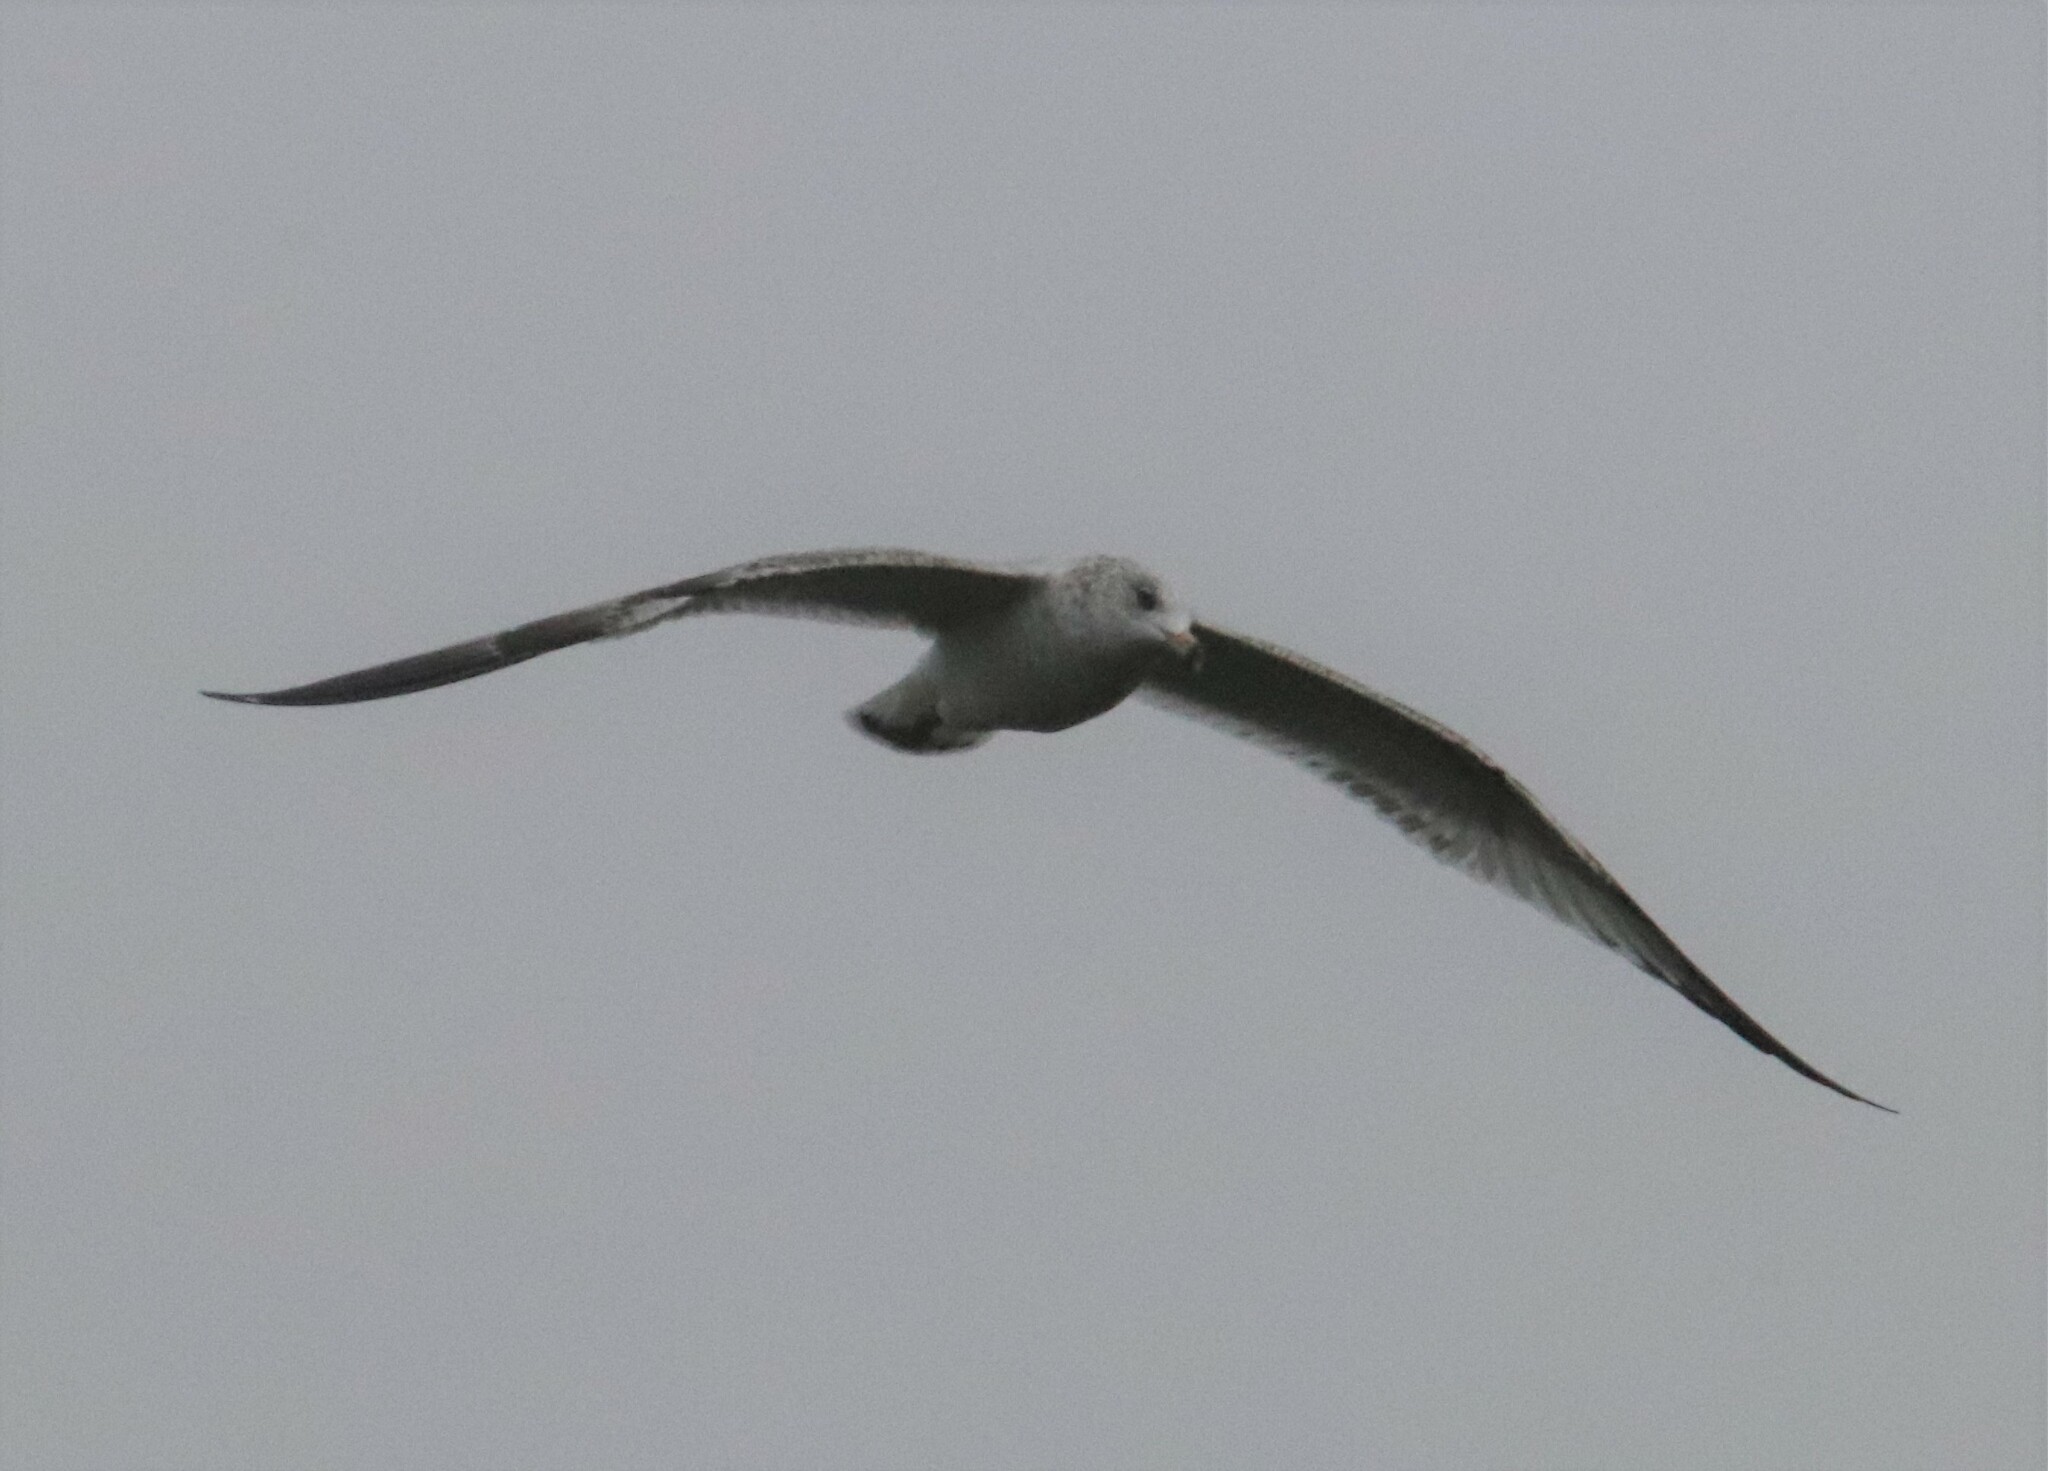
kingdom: Animalia
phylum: Chordata
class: Aves
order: Charadriiformes
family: Laridae
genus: Larus
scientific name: Larus delawarensis
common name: Ring-billed gull
